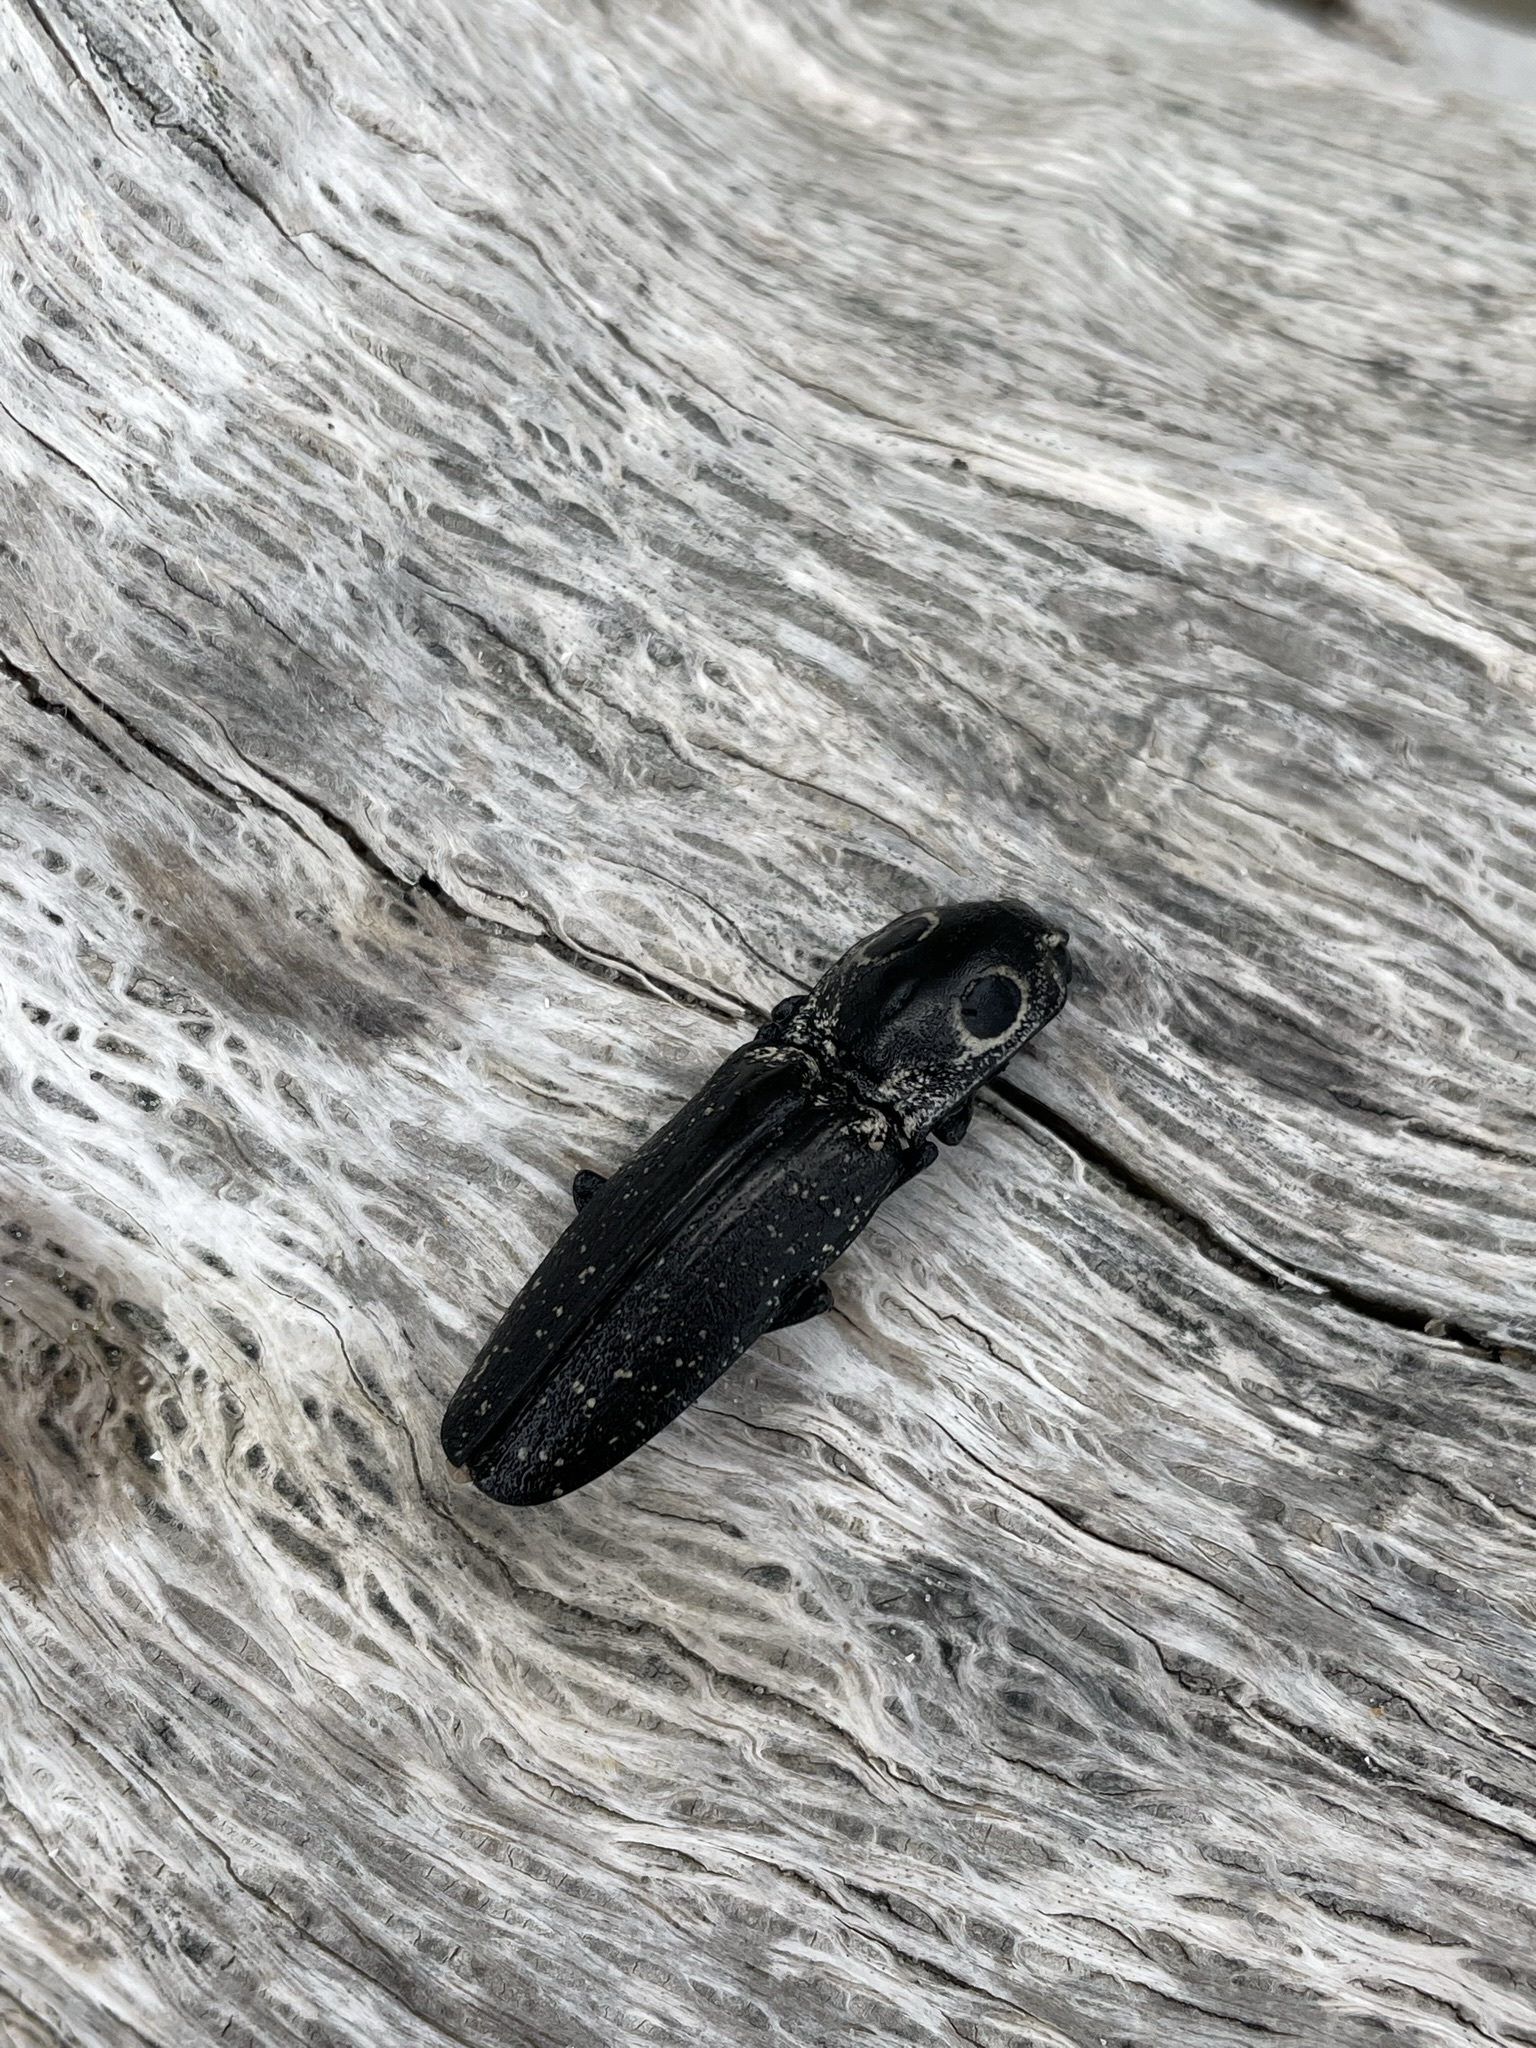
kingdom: Animalia
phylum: Arthropoda
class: Insecta
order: Coleoptera
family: Elateridae
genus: Alaus
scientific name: Alaus oculatus
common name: Eastern eyed click beetle
